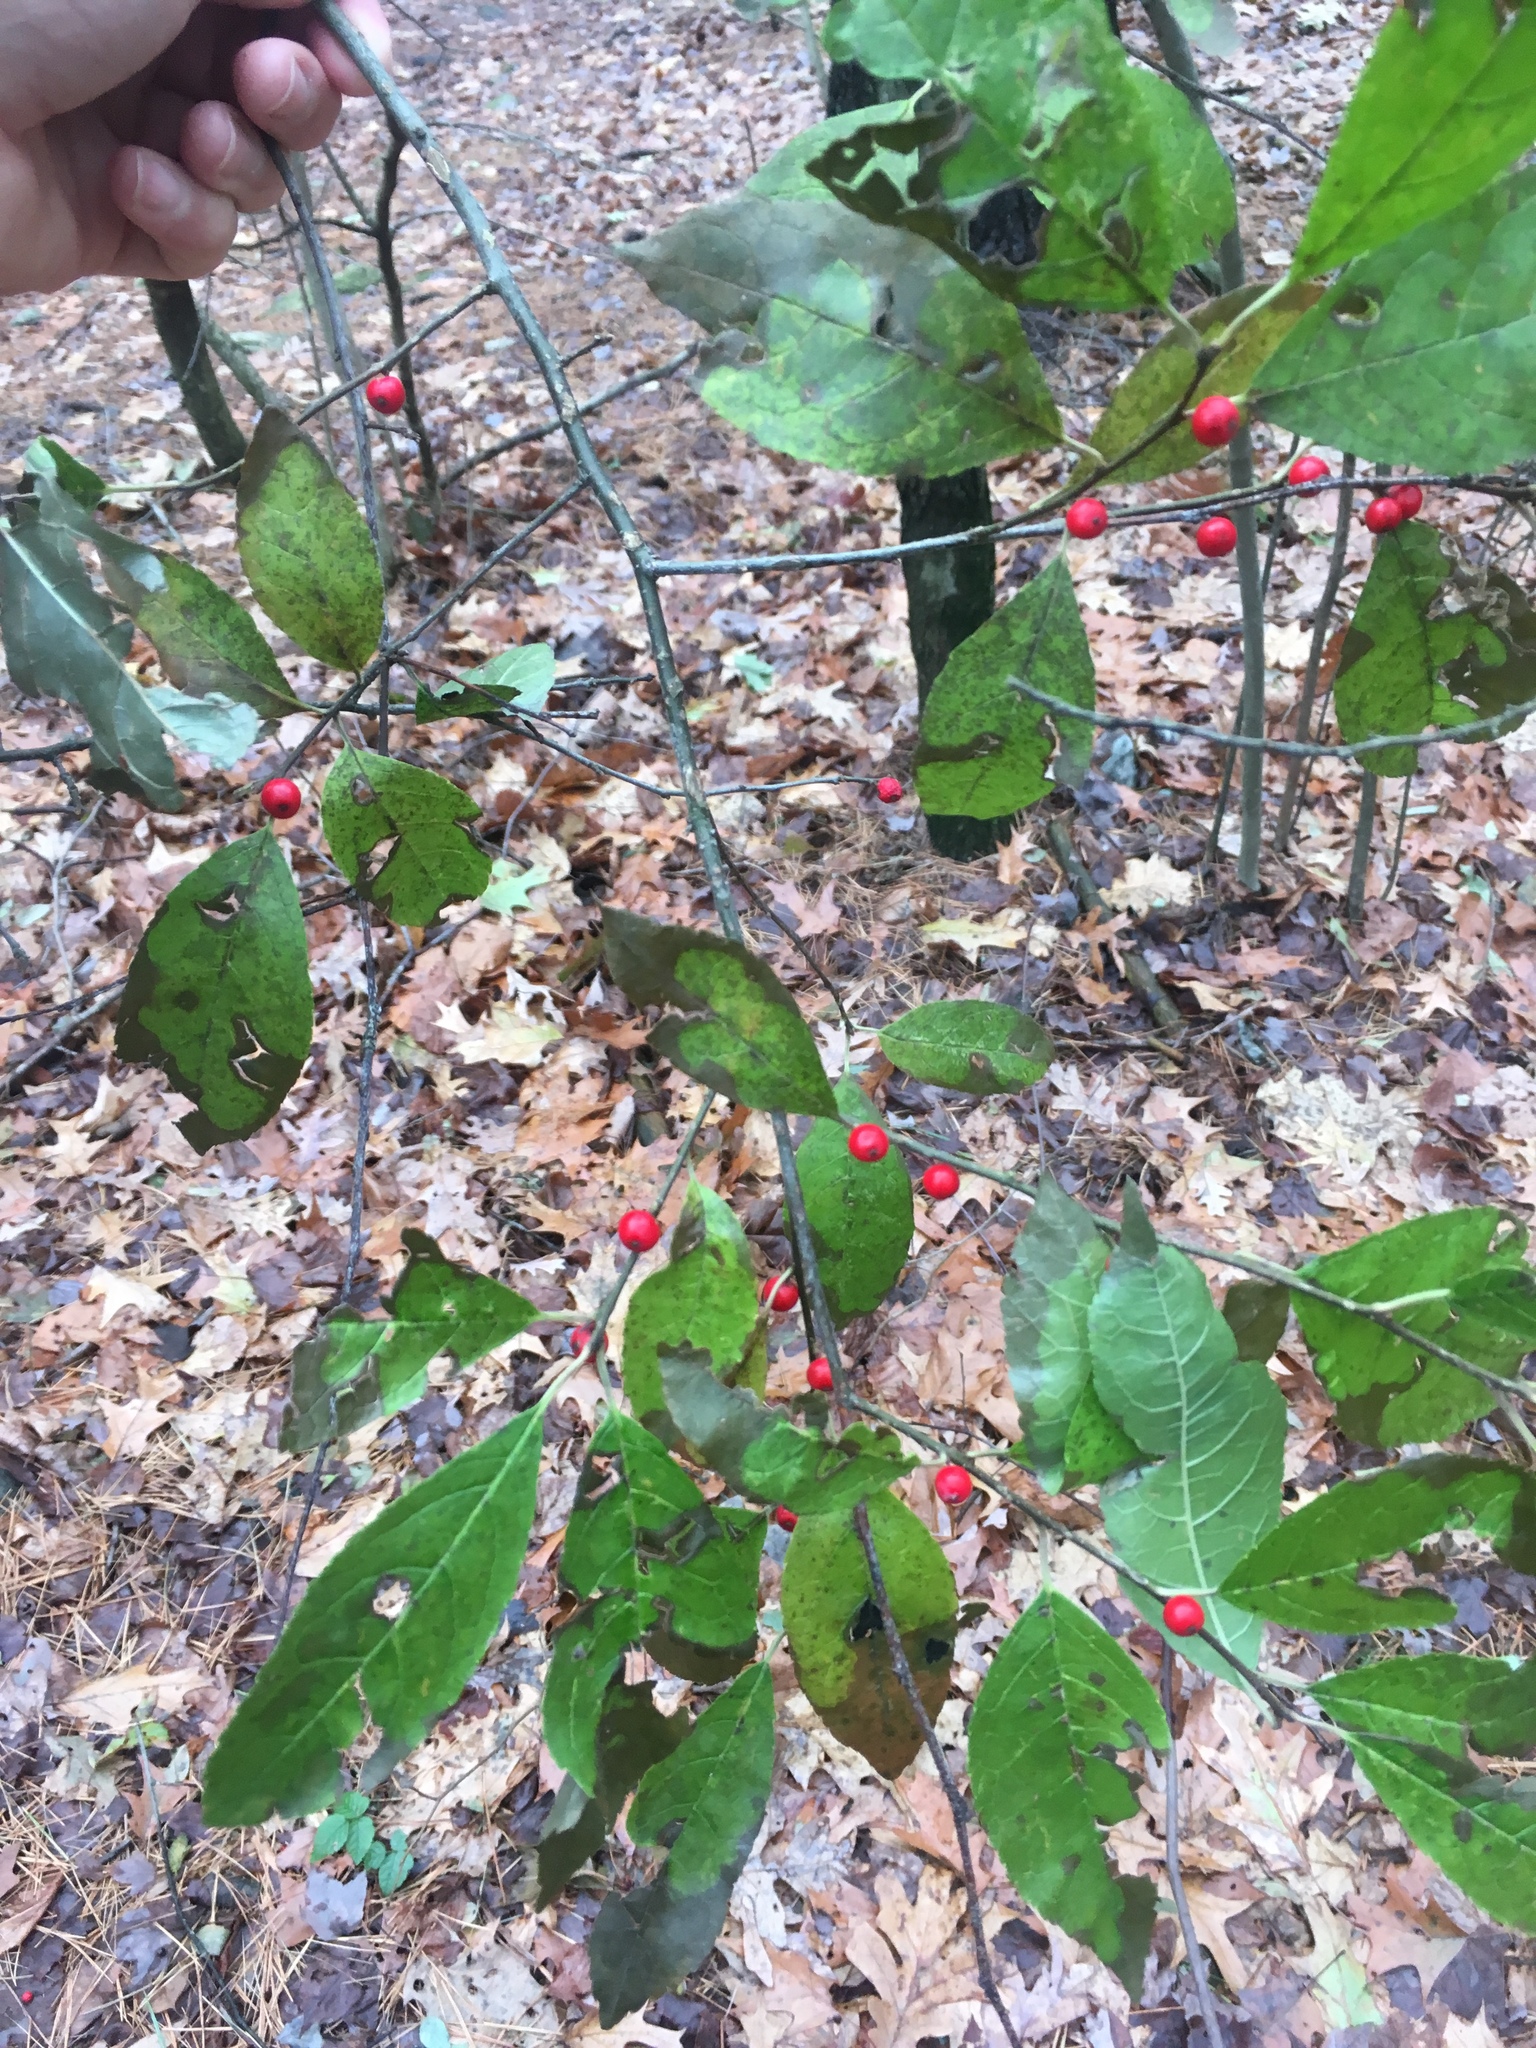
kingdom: Plantae
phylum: Tracheophyta
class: Magnoliopsida
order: Aquifoliales
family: Aquifoliaceae
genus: Ilex
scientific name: Ilex verticillata
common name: Virginia winterberry
